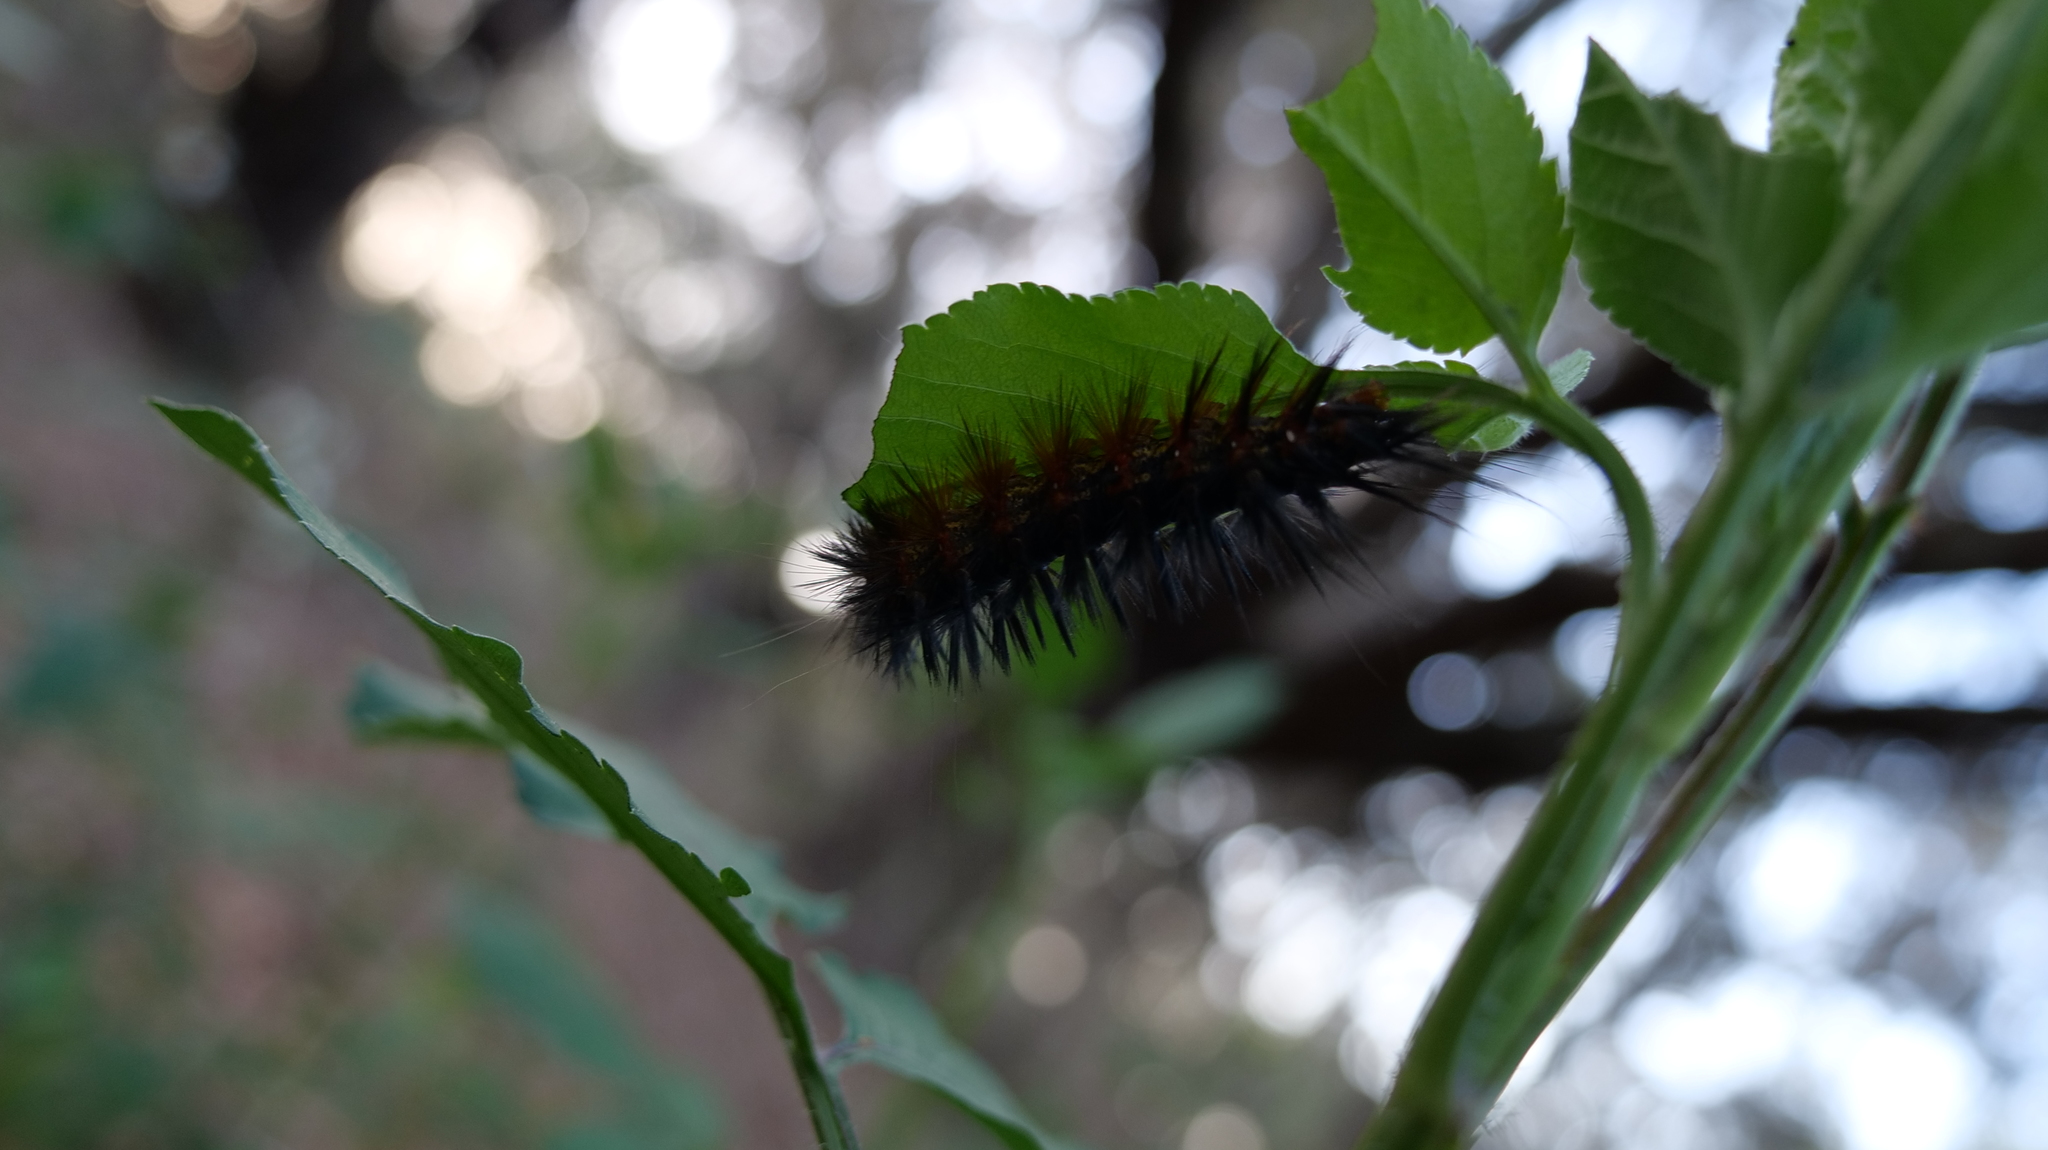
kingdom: Animalia
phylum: Arthropoda
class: Insecta
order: Lepidoptera
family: Erebidae
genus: Estigmene
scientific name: Estigmene acrea
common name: Salt marsh moth
